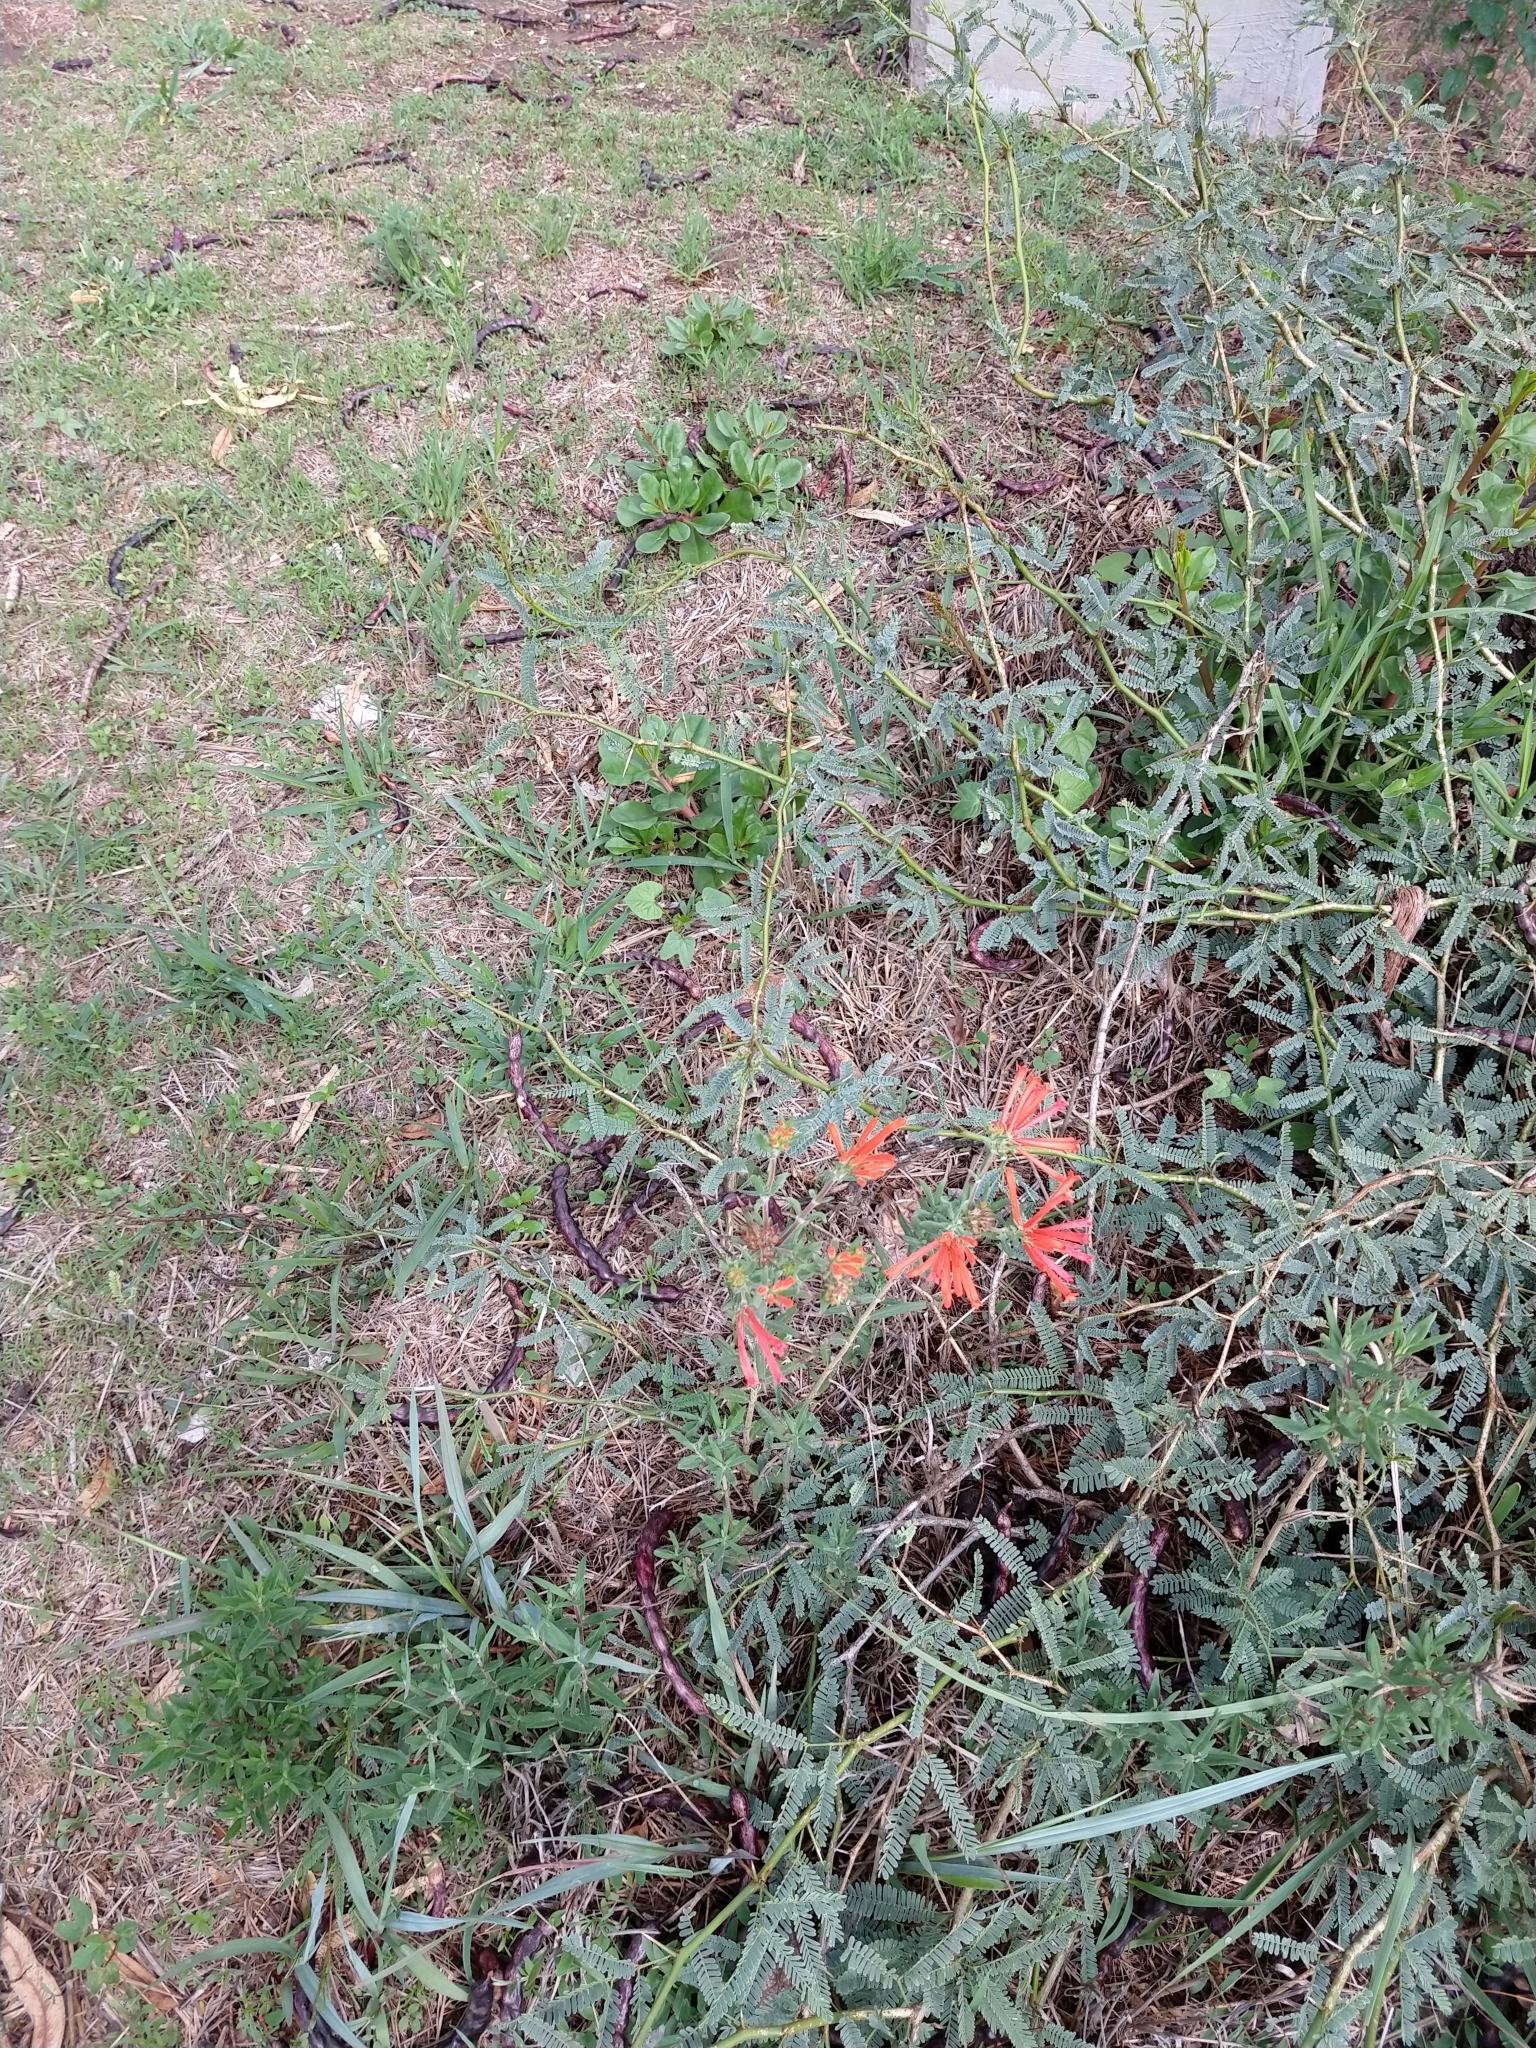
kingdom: Plantae
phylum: Tracheophyta
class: Magnoliopsida
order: Gentianales
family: Rubiaceae
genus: Bouvardia
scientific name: Bouvardia ternifolia
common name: Scarlet bouvardia
